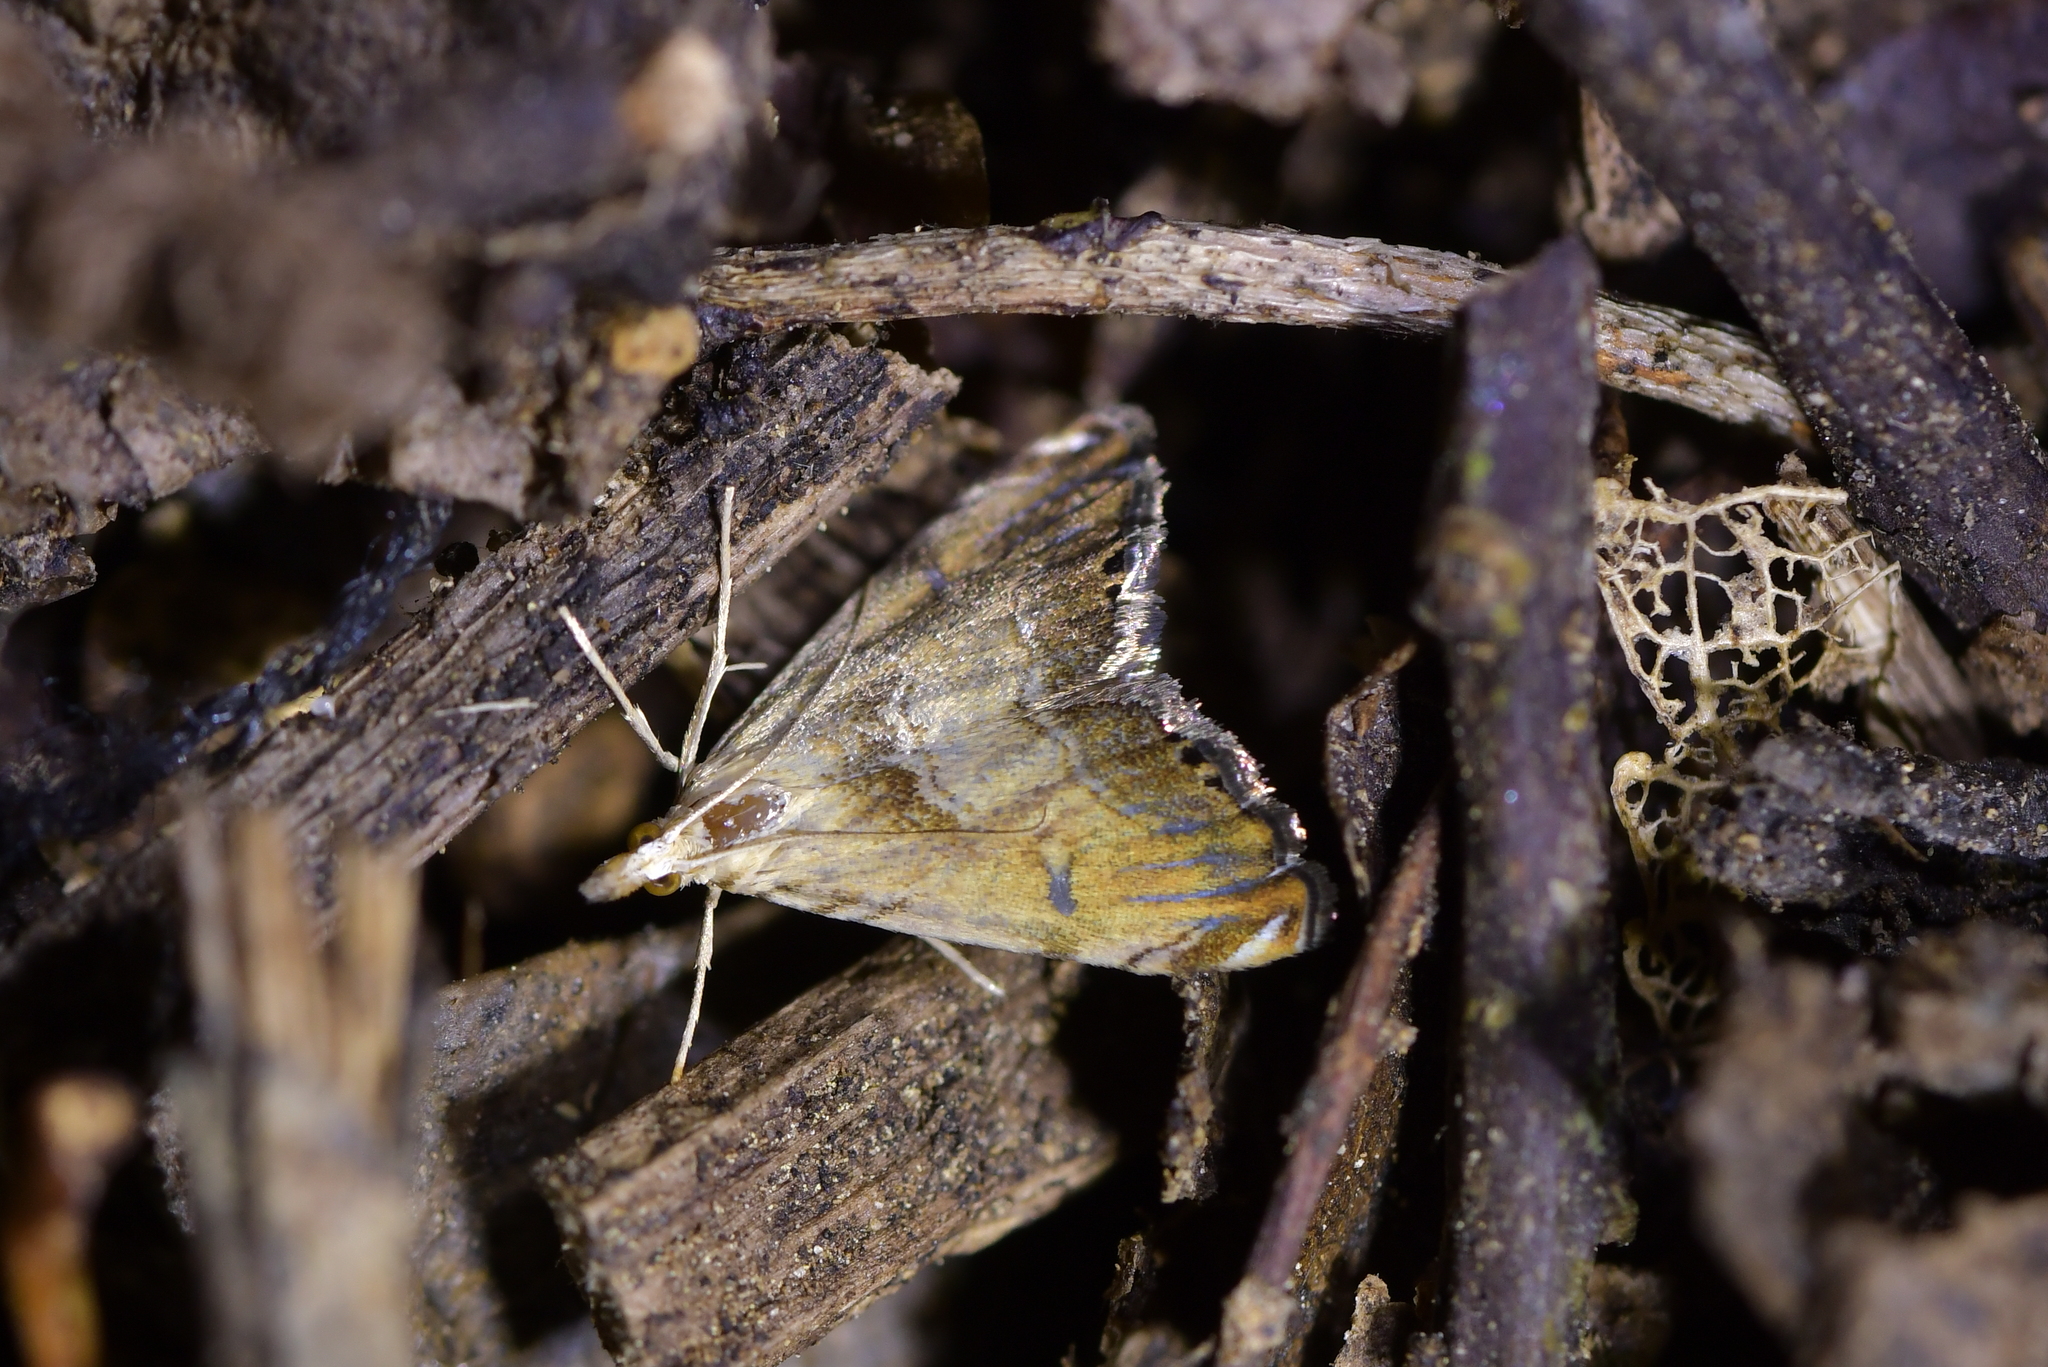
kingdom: Animalia
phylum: Arthropoda
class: Insecta
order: Lepidoptera
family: Crambidae
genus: Glaucocharis
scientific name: Glaucocharis harmonica
